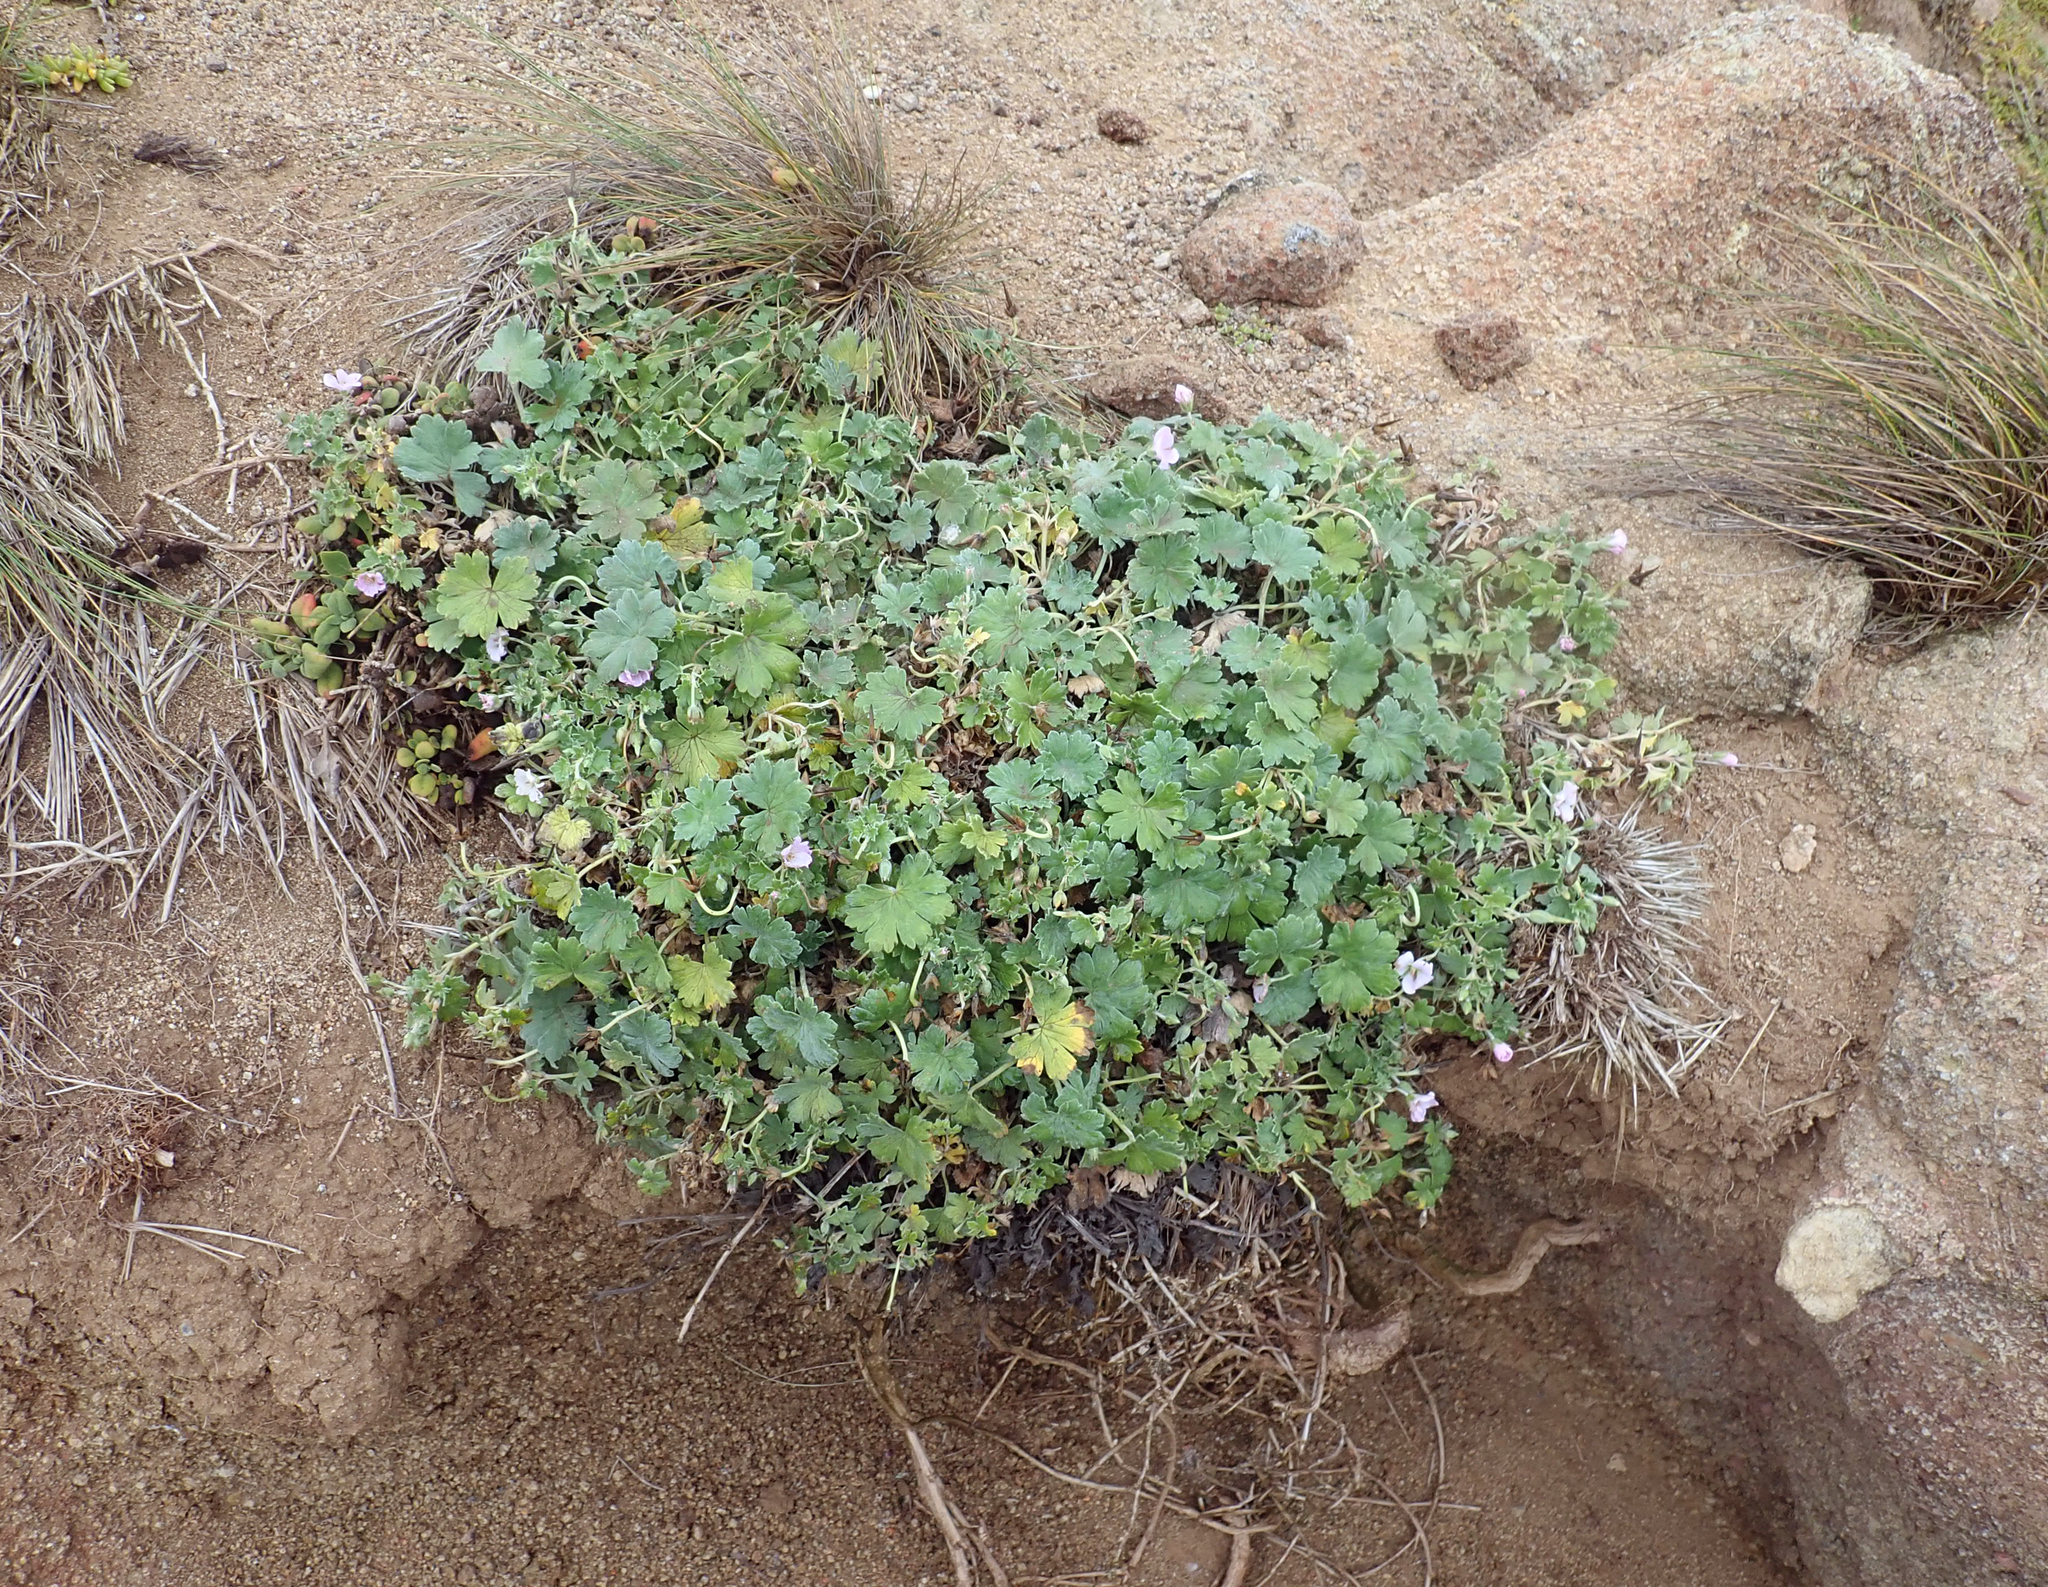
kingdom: Plantae
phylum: Tracheophyta
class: Magnoliopsida
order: Geraniales
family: Geraniaceae
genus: Geranium
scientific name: Geranium traversii
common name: Cranesbill
